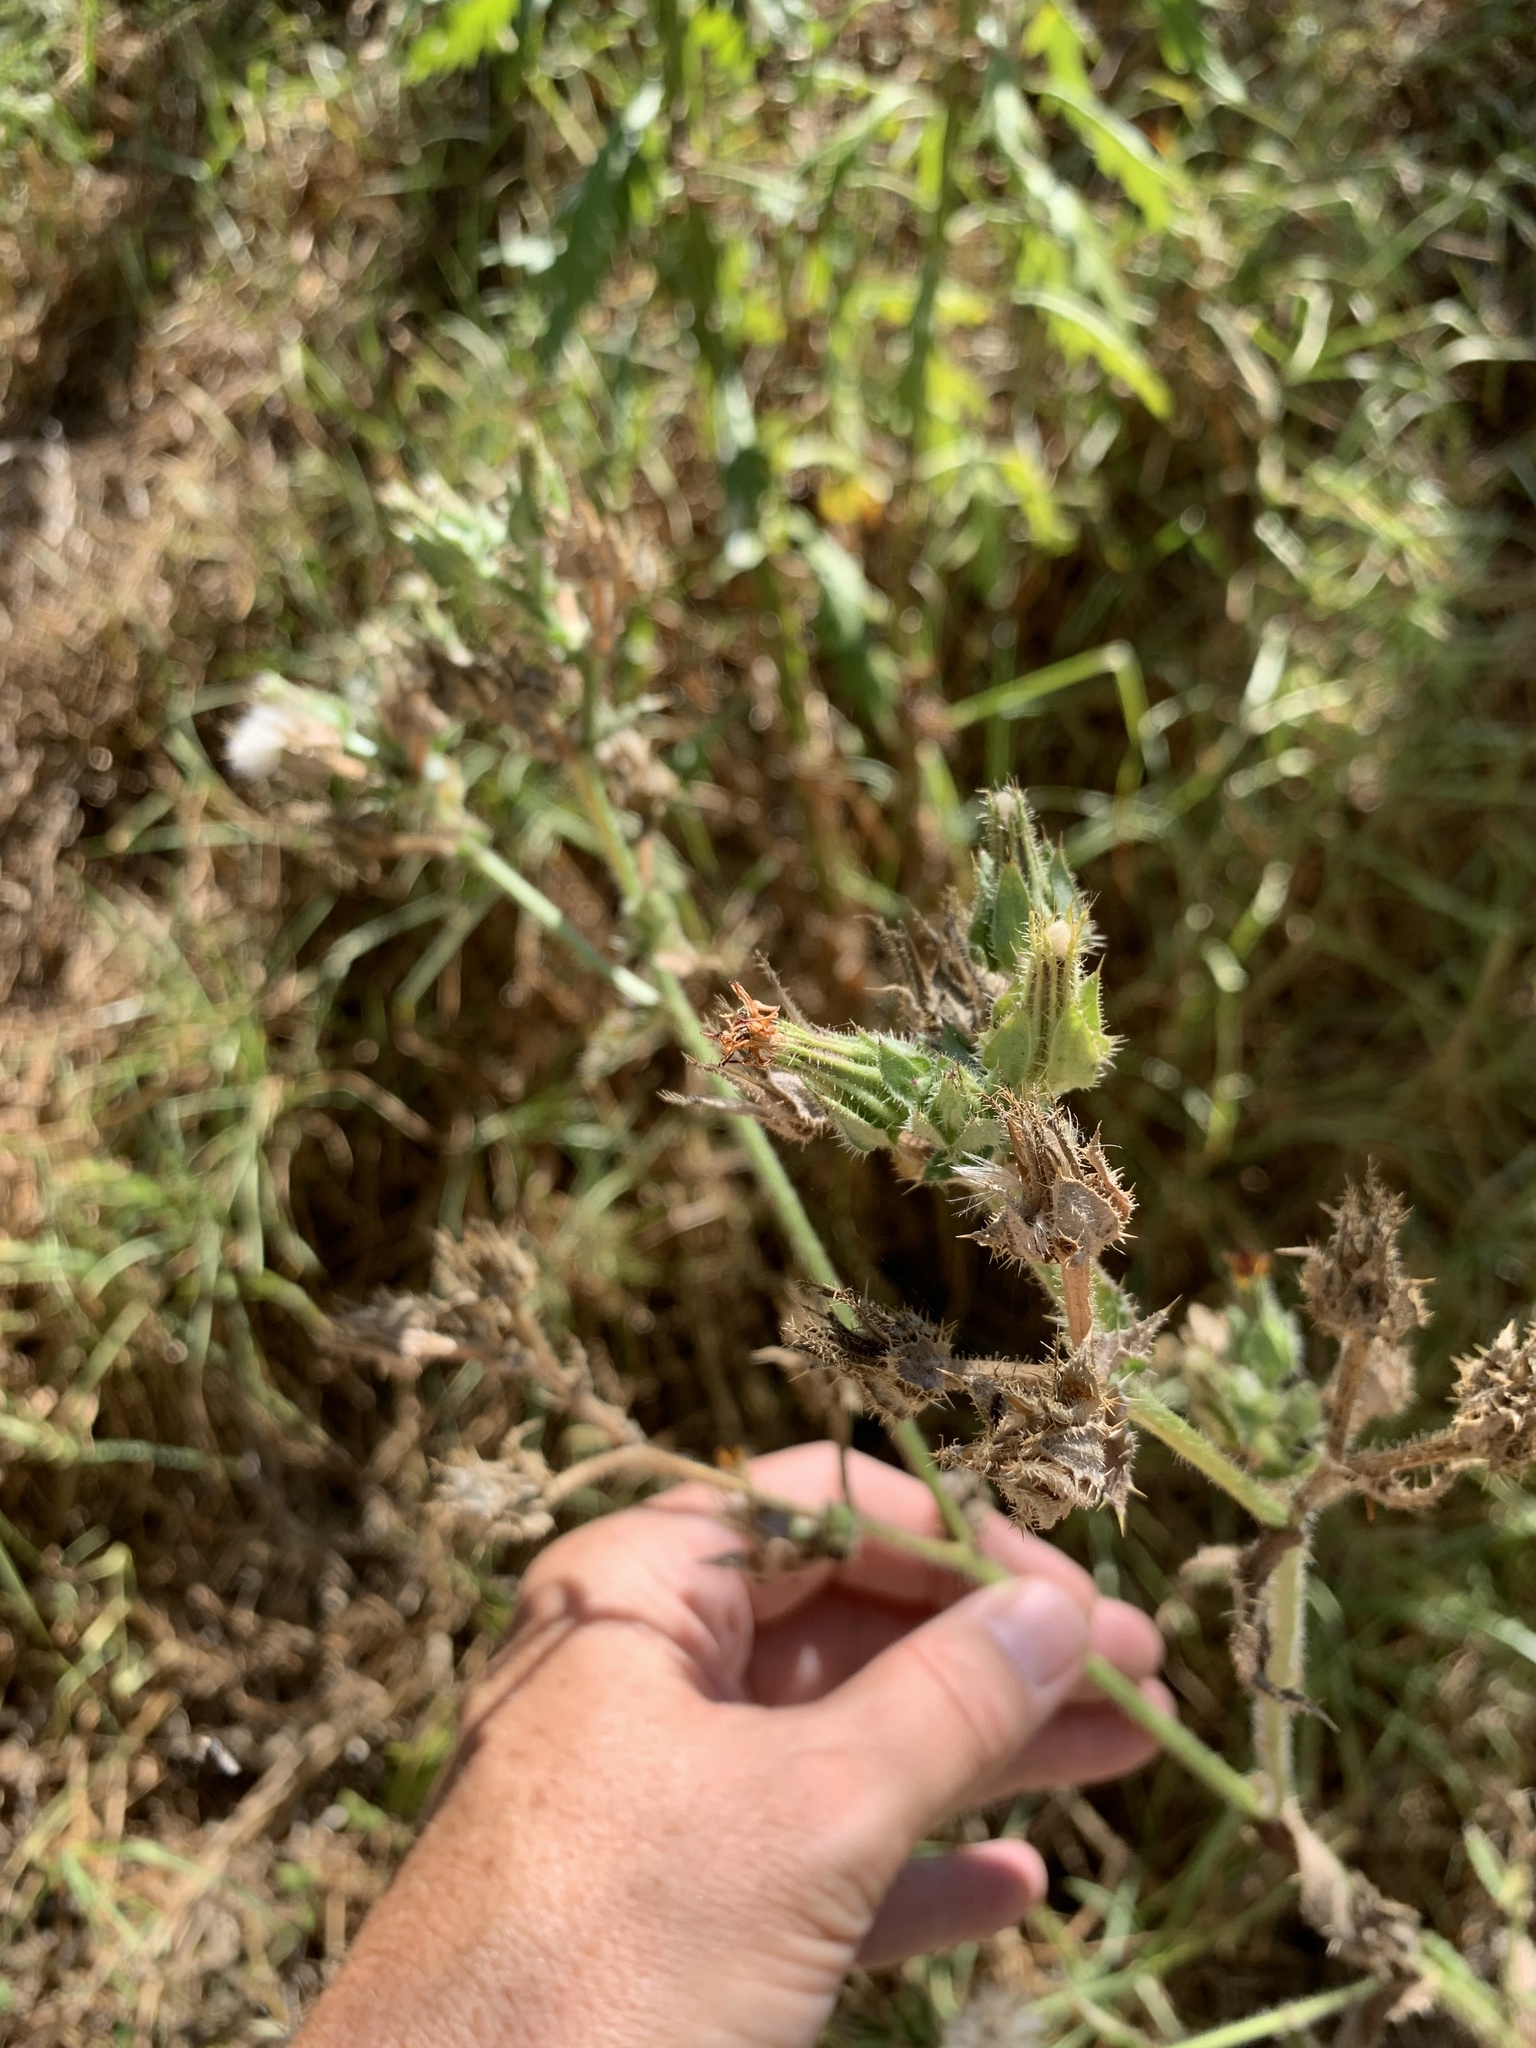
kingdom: Plantae
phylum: Tracheophyta
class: Magnoliopsida
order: Asterales
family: Asteraceae
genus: Helminthotheca
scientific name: Helminthotheca echioides
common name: Ox-tongue
